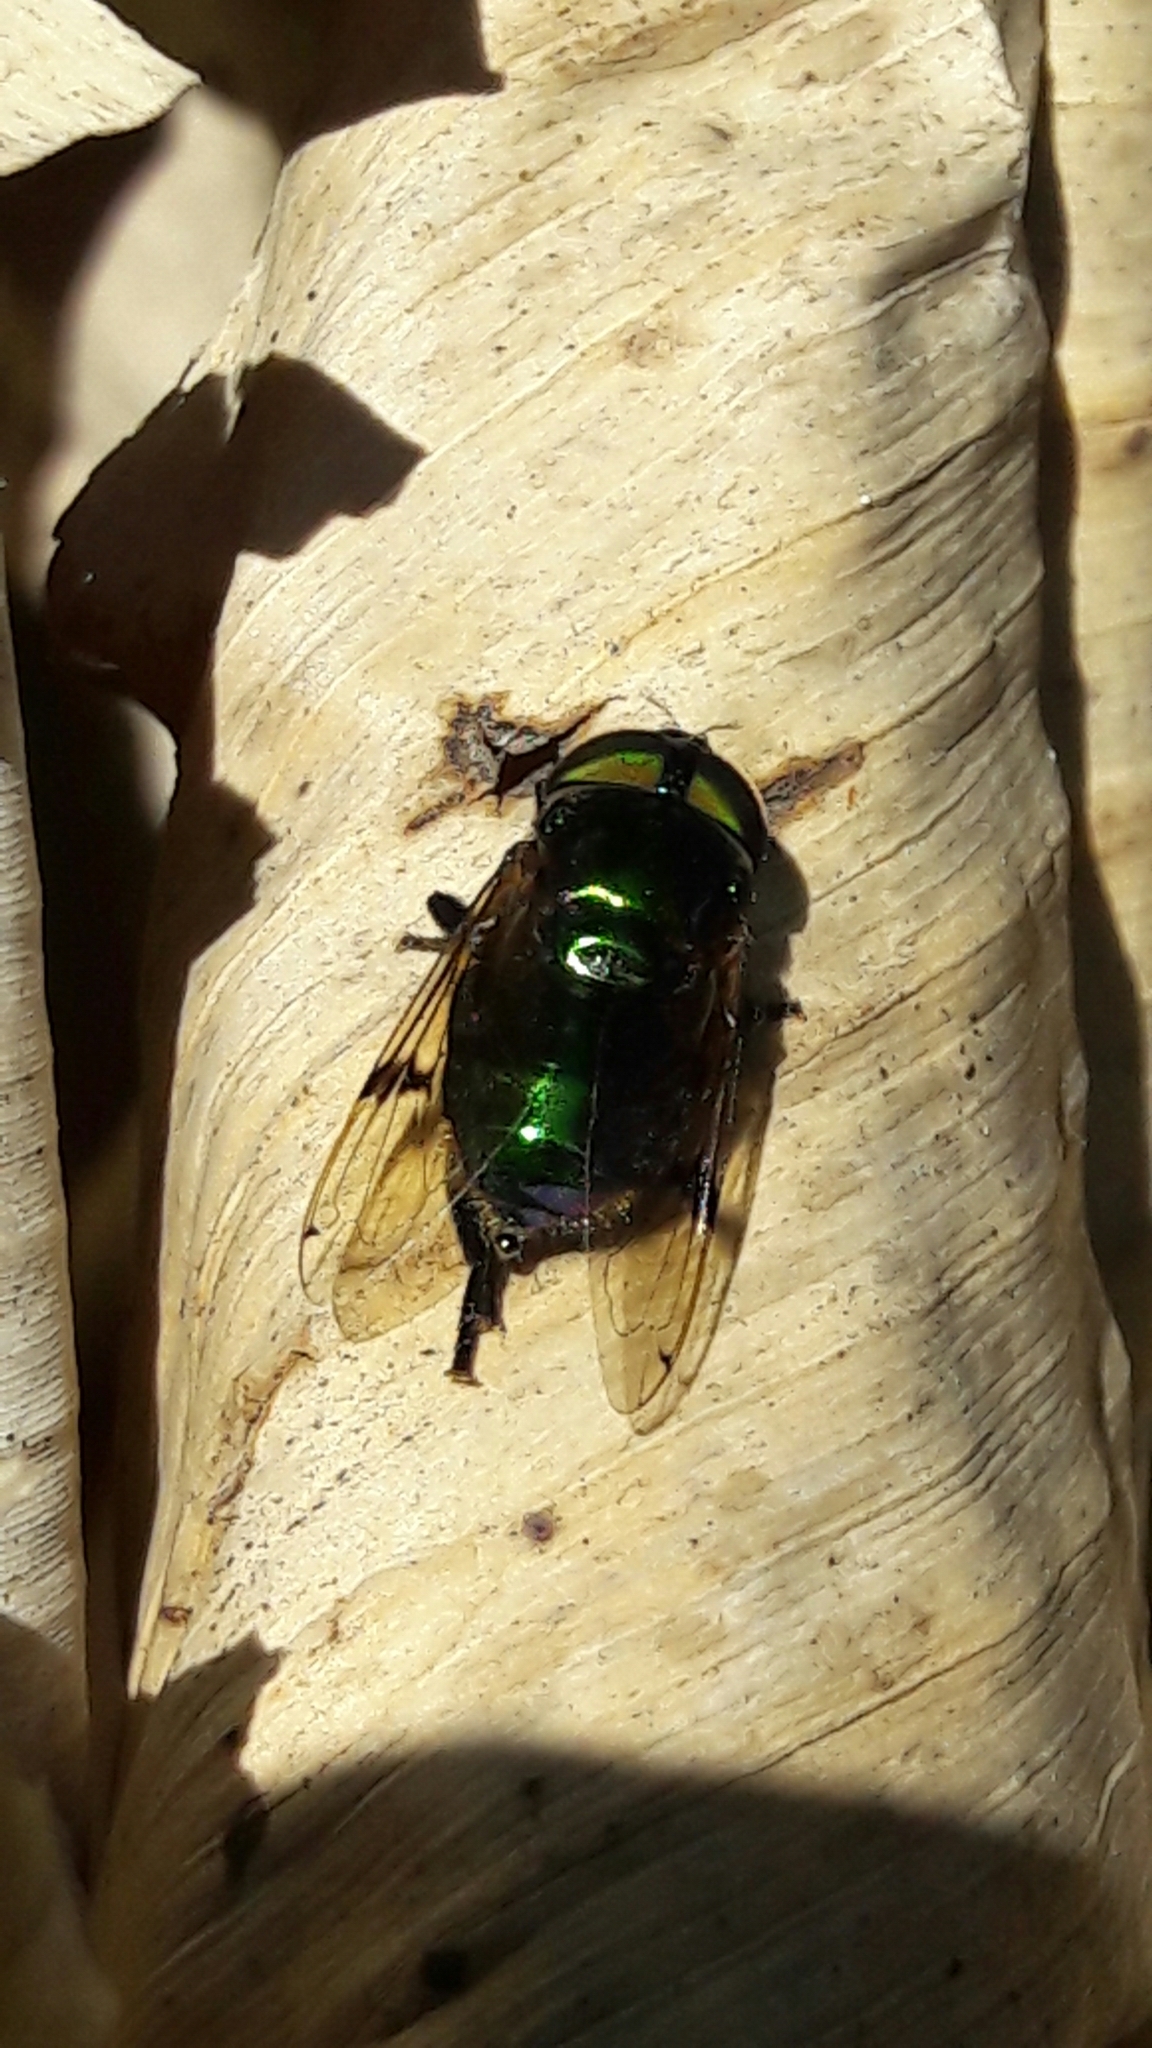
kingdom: Animalia
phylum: Arthropoda
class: Insecta
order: Diptera
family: Syrphidae
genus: Ornidia
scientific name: Ornidia obesa
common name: Syrphid fly
